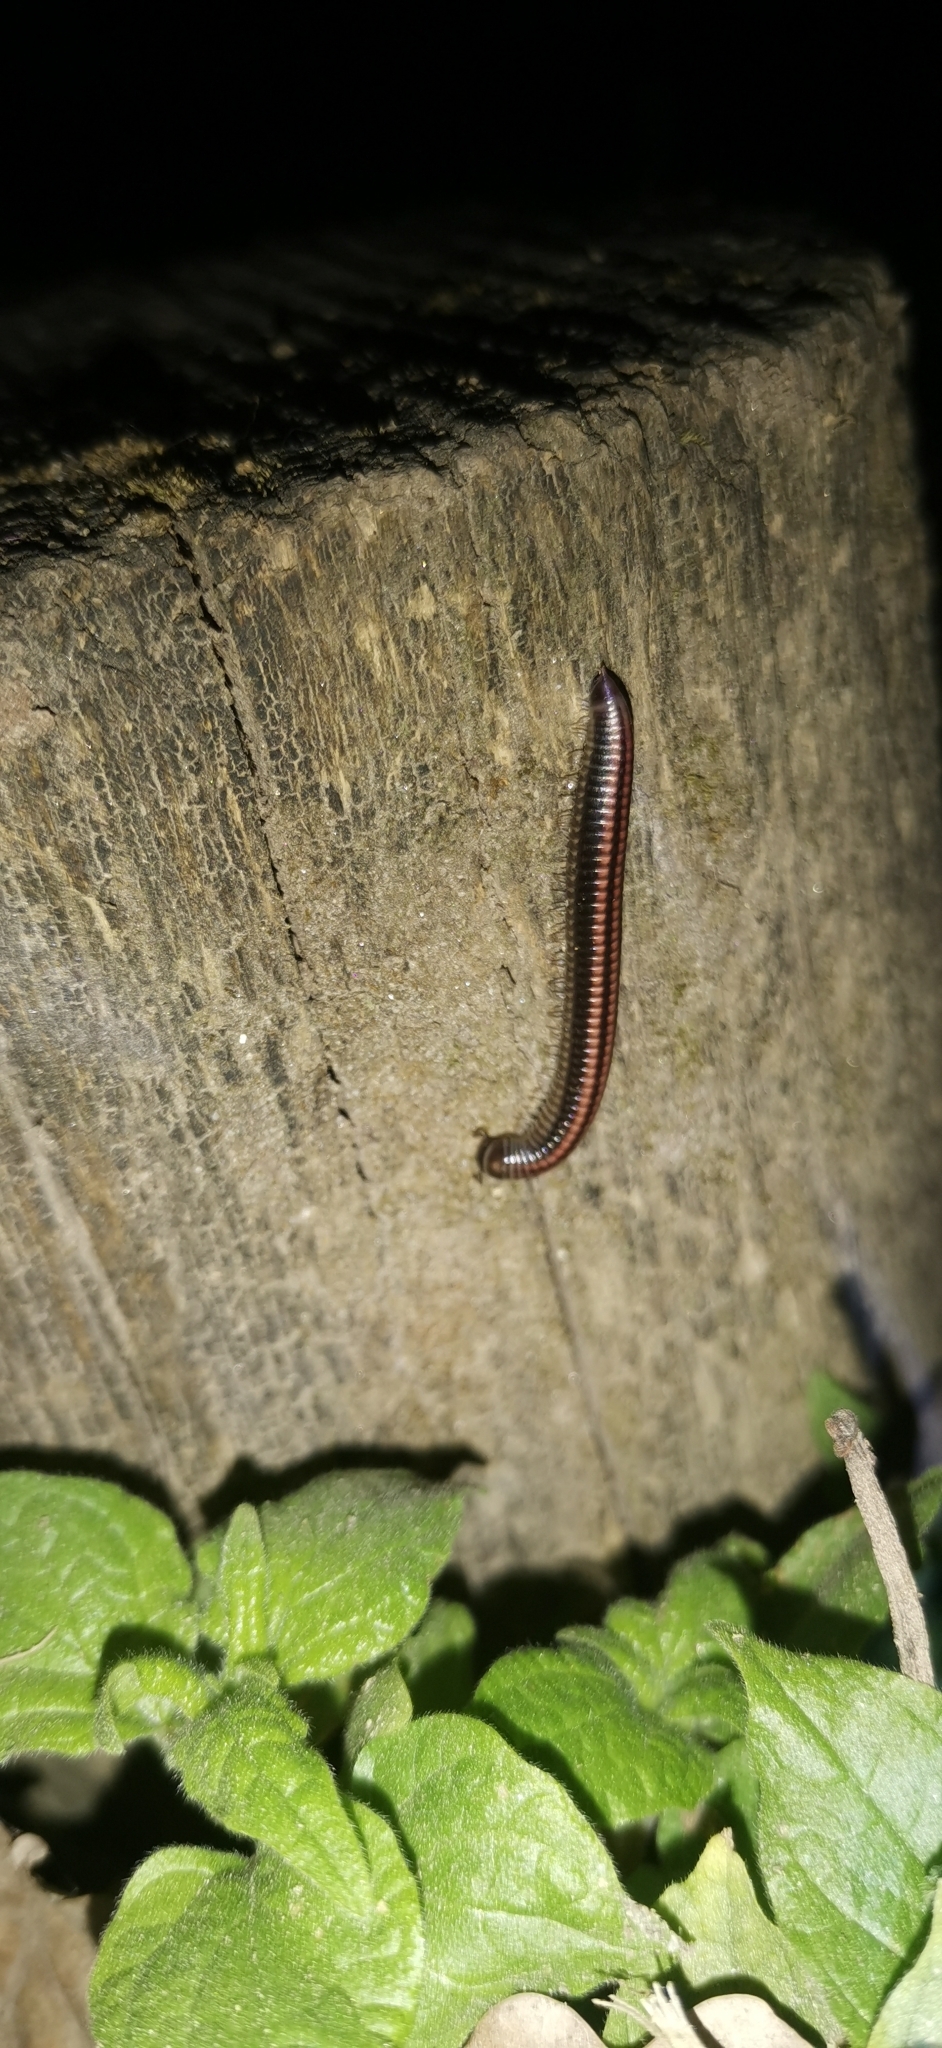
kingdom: Animalia
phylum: Arthropoda
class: Diplopoda
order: Julida
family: Julidae
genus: Ommatoiulus
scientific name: Ommatoiulus sabulosus
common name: Striped millipede
